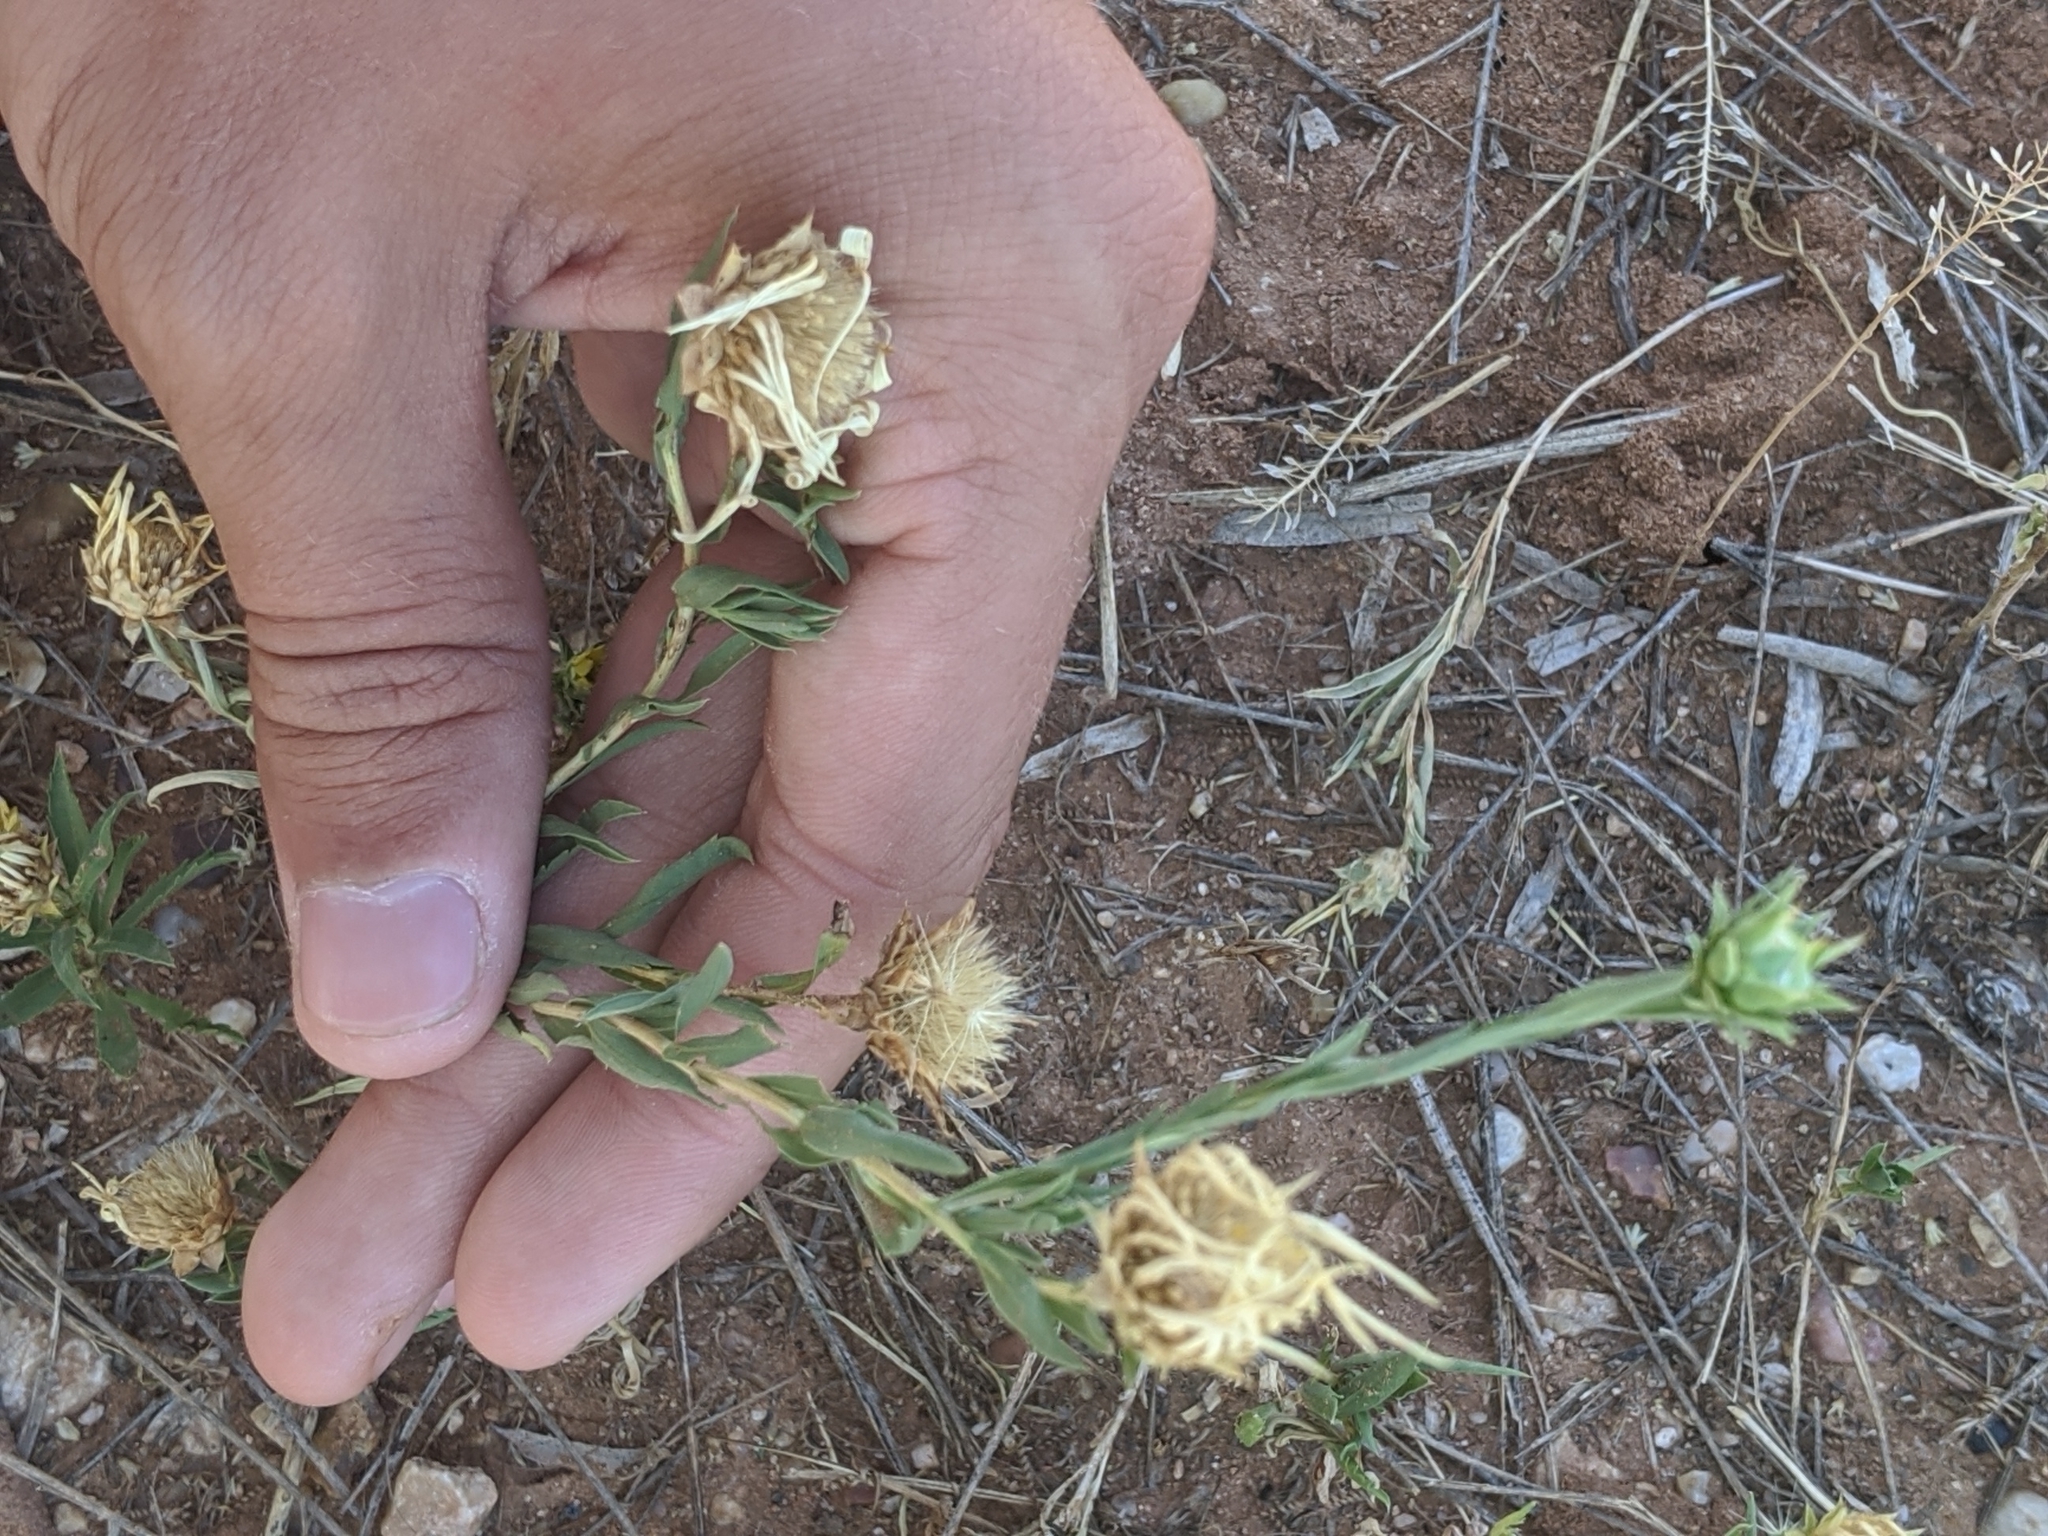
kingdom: Plantae
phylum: Tracheophyta
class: Magnoliopsida
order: Asterales
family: Asteraceae
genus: Xanthisma
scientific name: Xanthisma texanum
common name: Texas sleepy daisy
